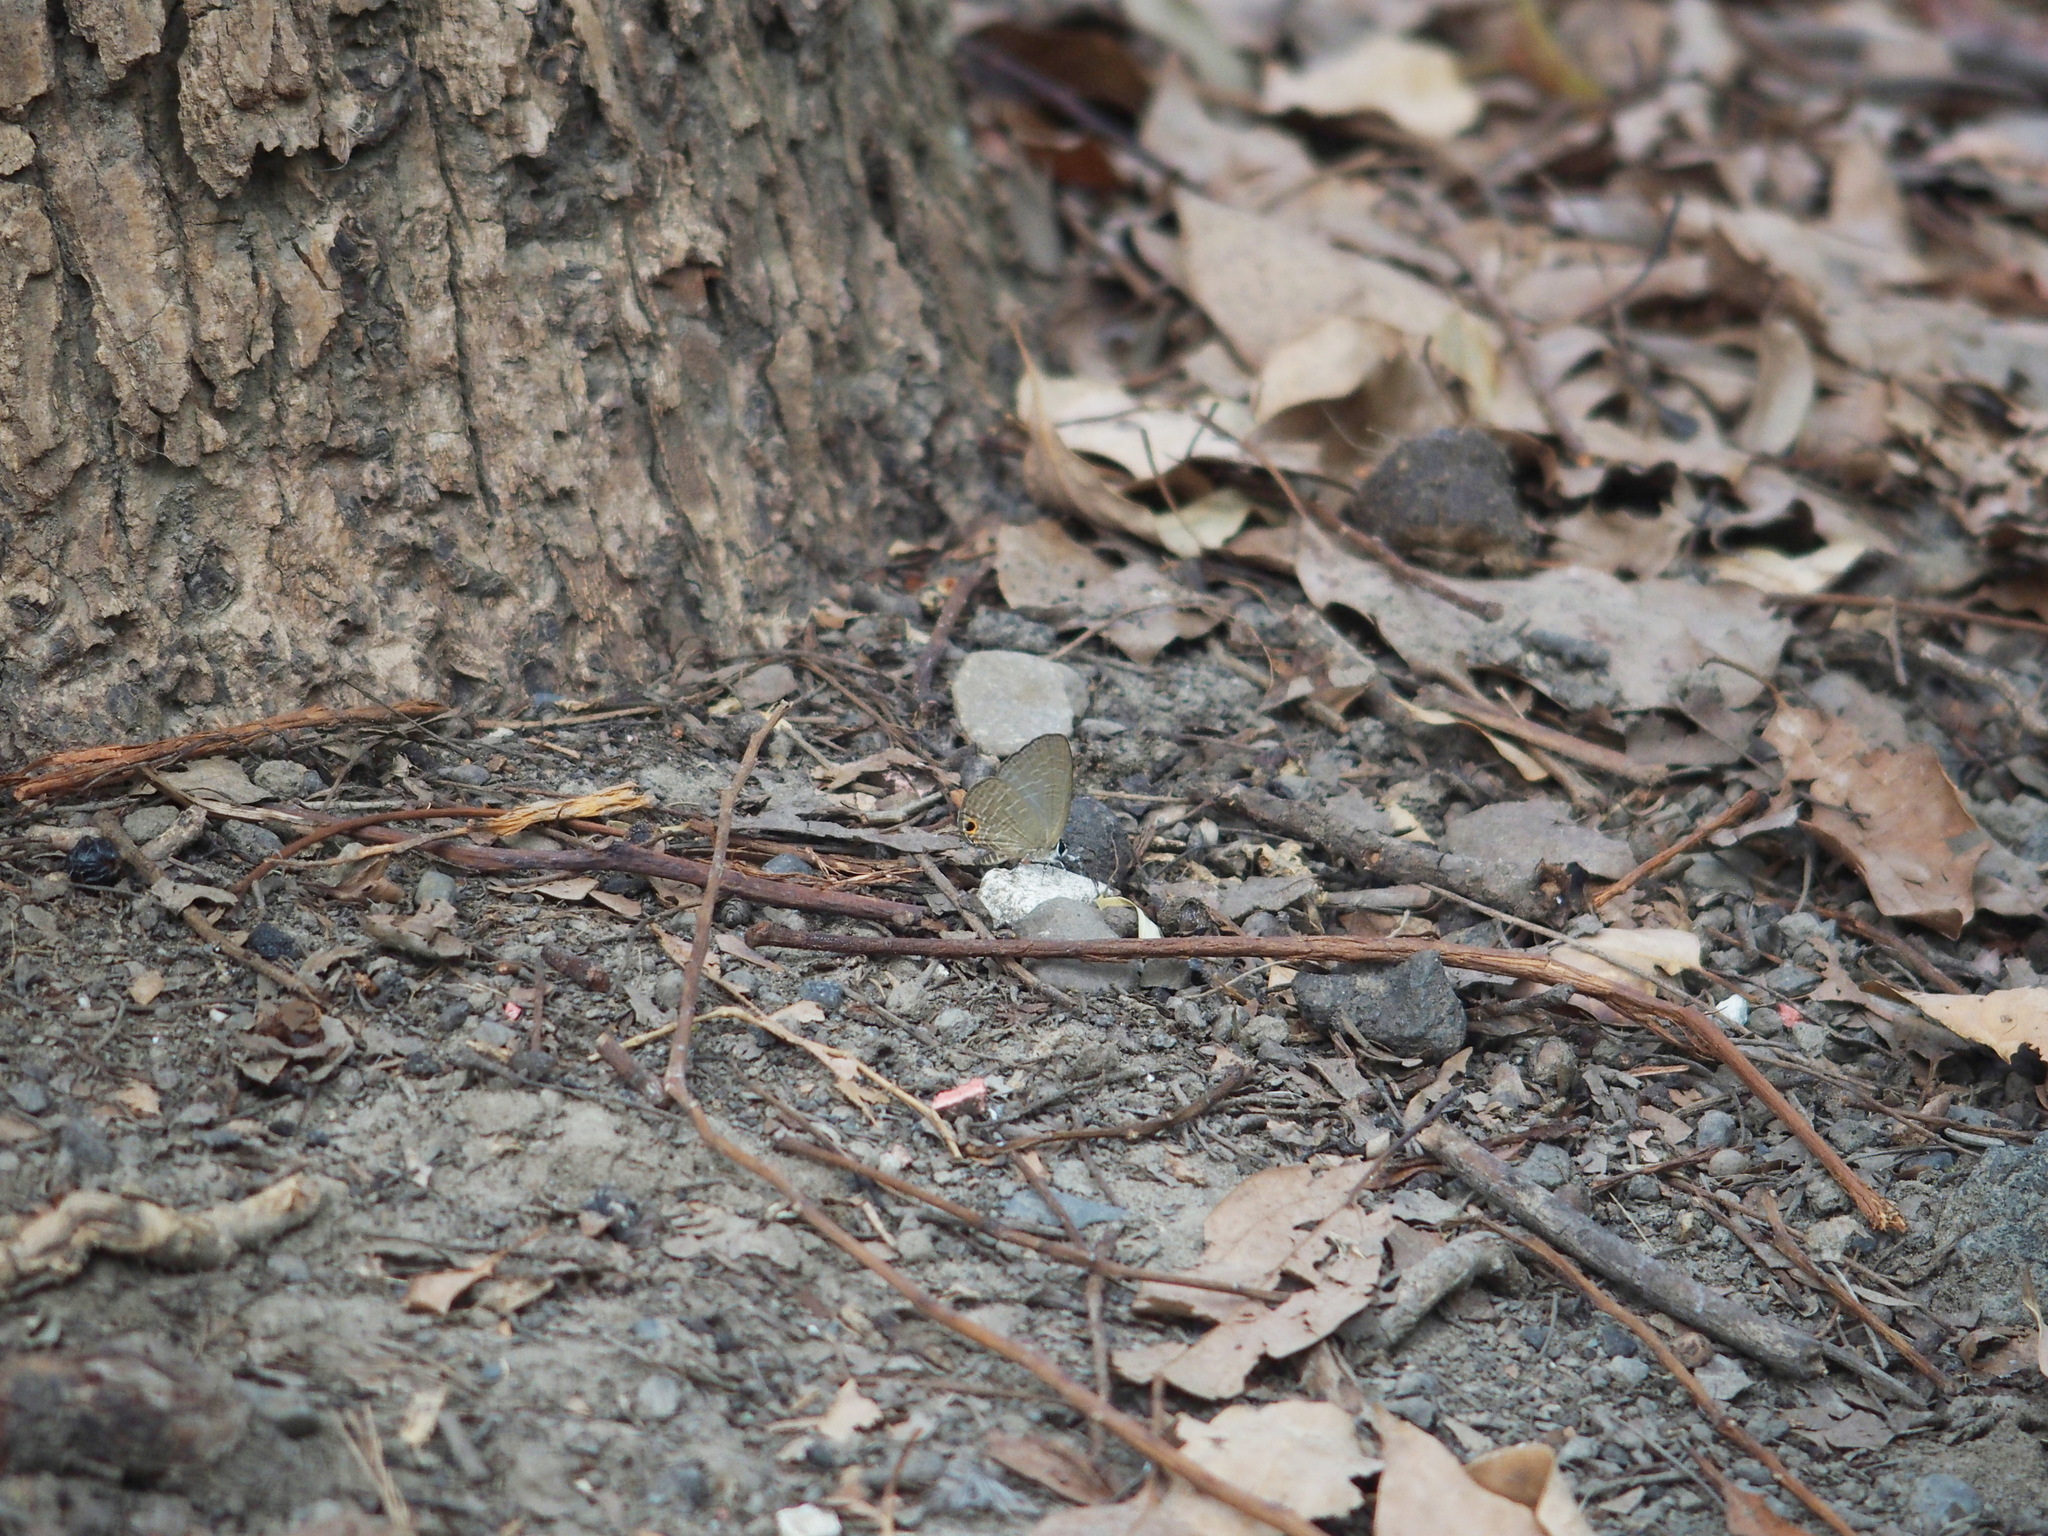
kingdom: Animalia
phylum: Arthropoda
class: Insecta
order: Lepidoptera
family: Lycaenidae
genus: Jamides
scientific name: Jamides bochus
